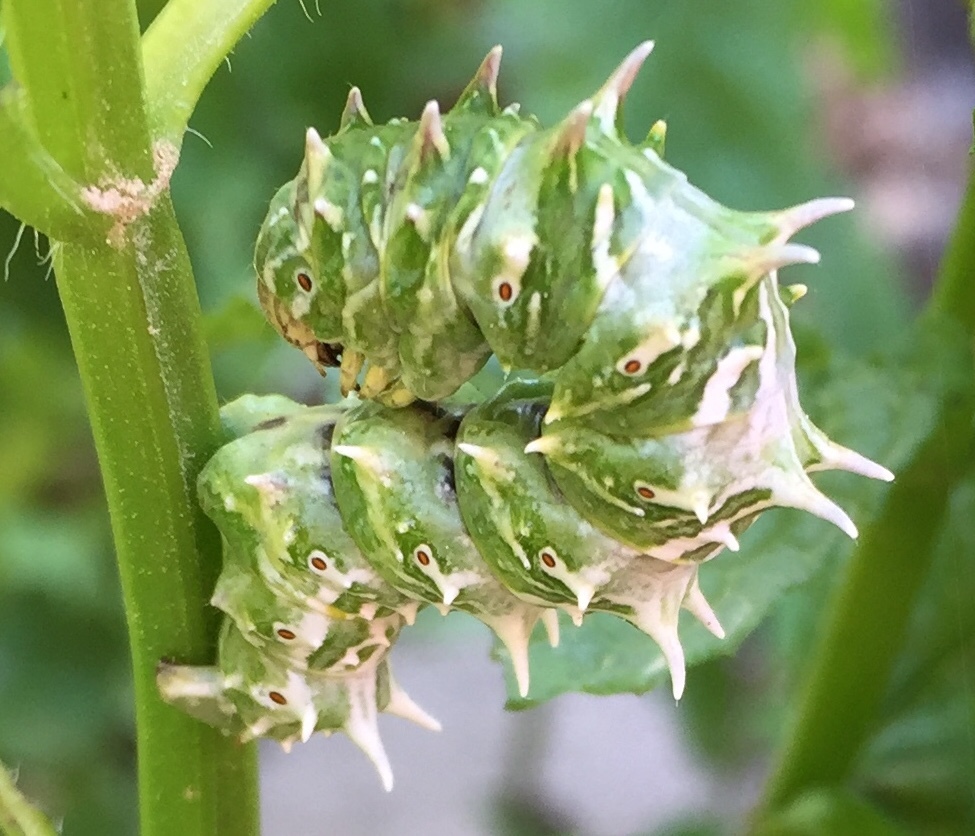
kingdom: Animalia
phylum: Arthropoda
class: Insecta
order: Lepidoptera
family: Geometridae
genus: Apochima
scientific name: Apochima flabellaria
